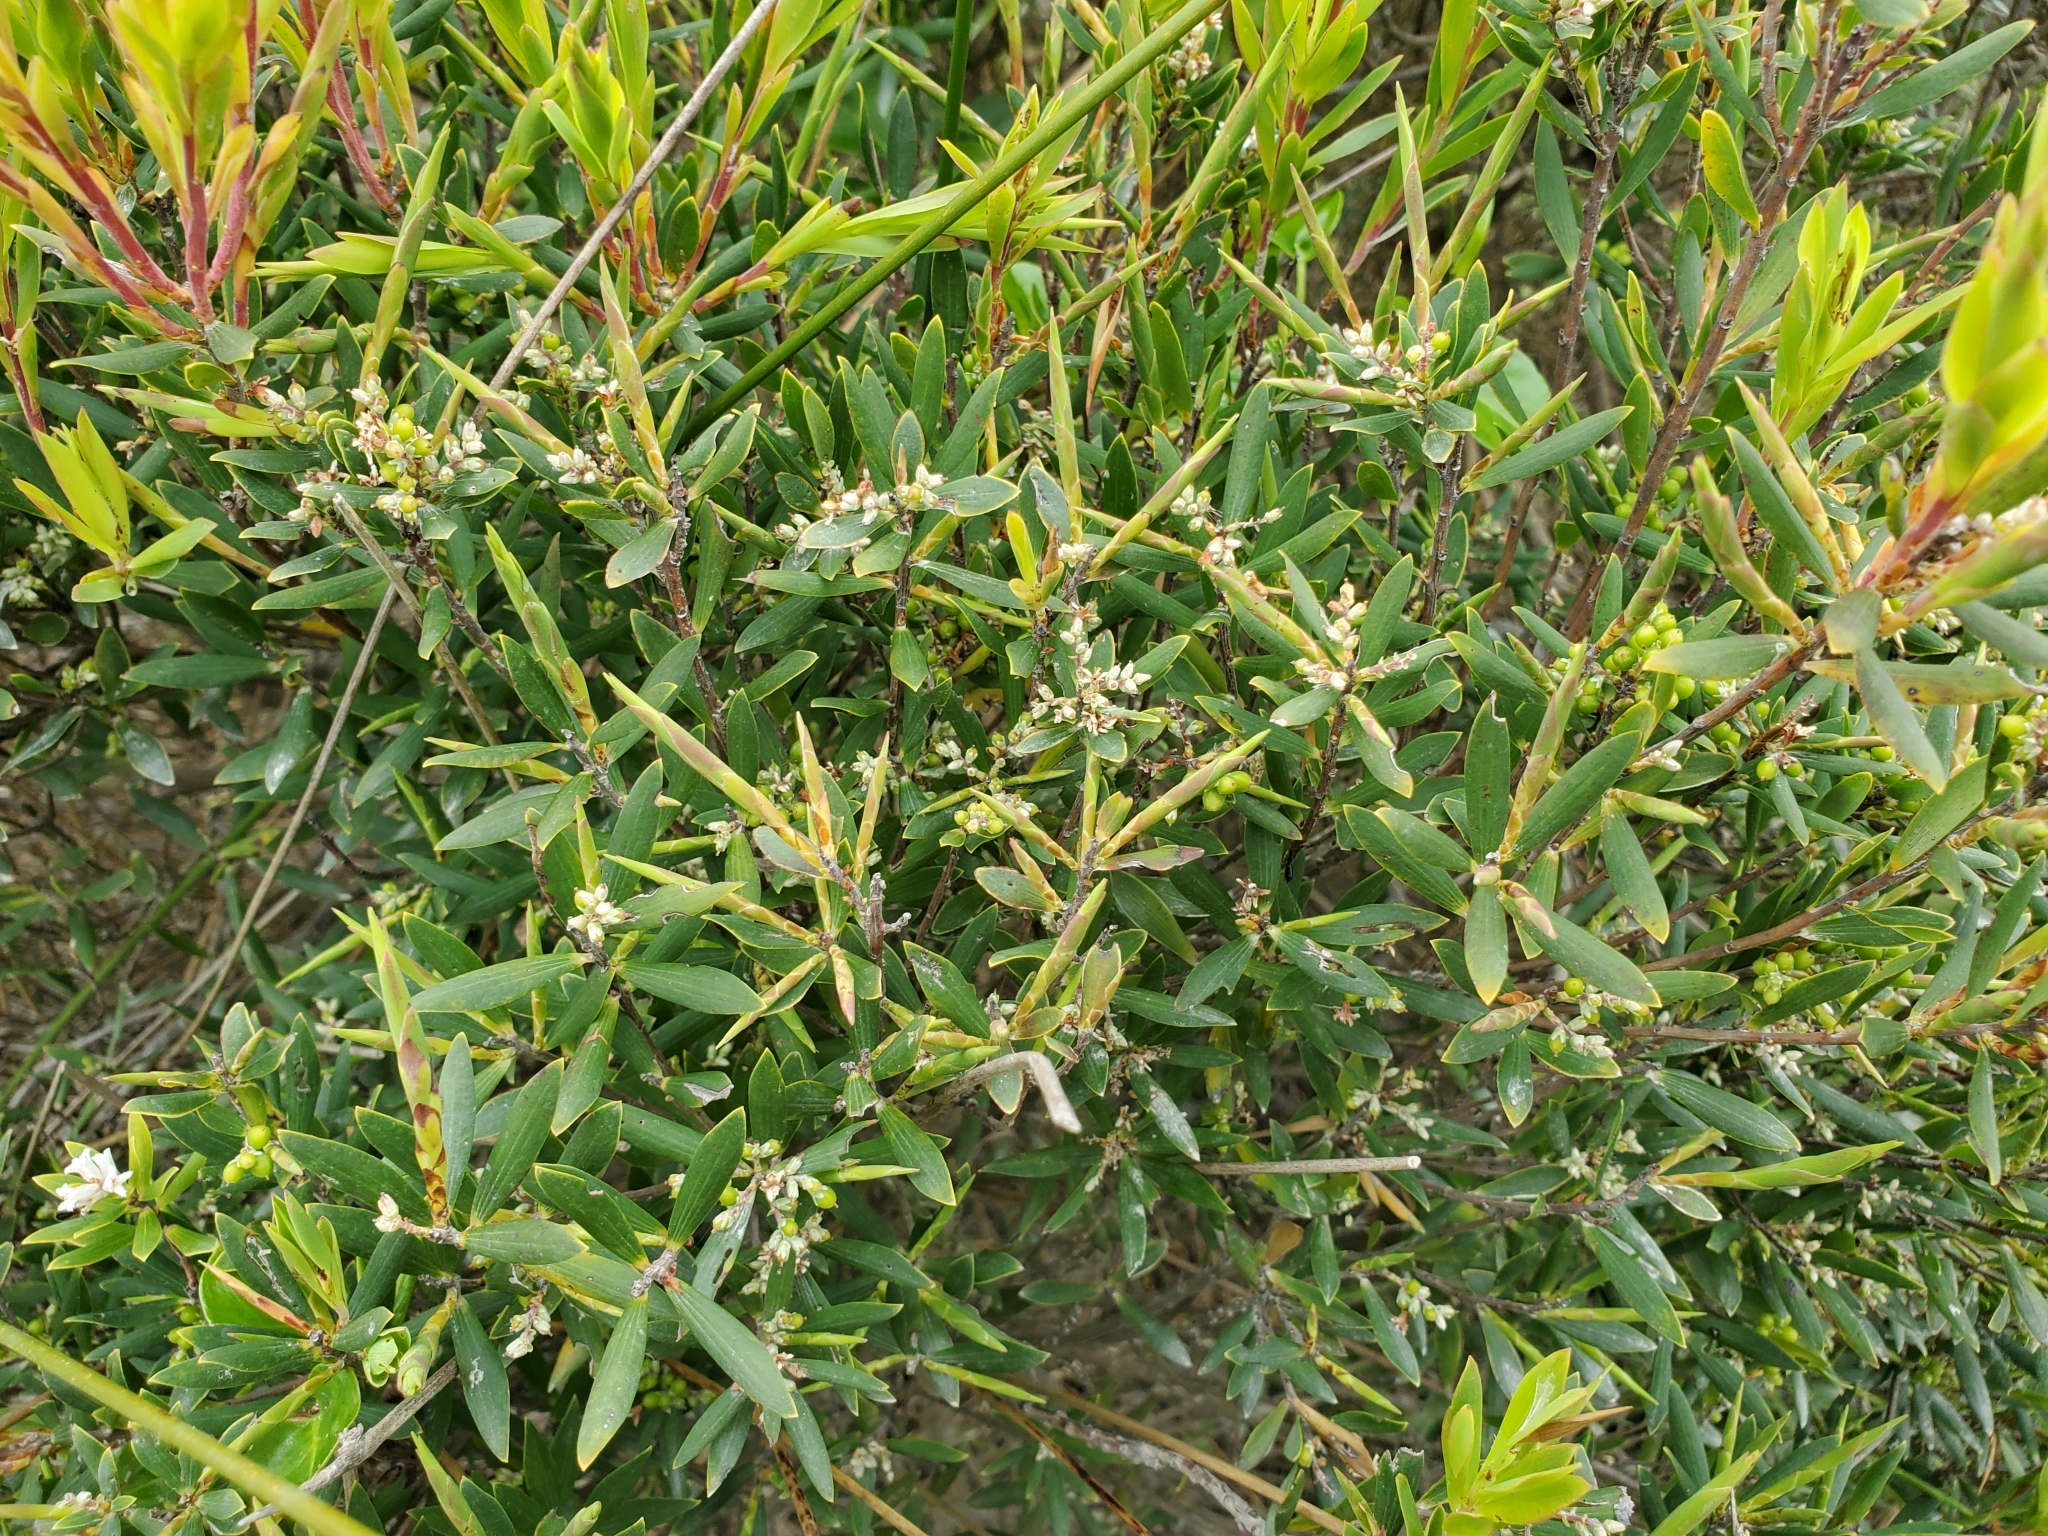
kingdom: Plantae
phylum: Tracheophyta
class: Magnoliopsida
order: Ericales
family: Ericaceae
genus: Leptecophylla
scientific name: Leptecophylla robusta
